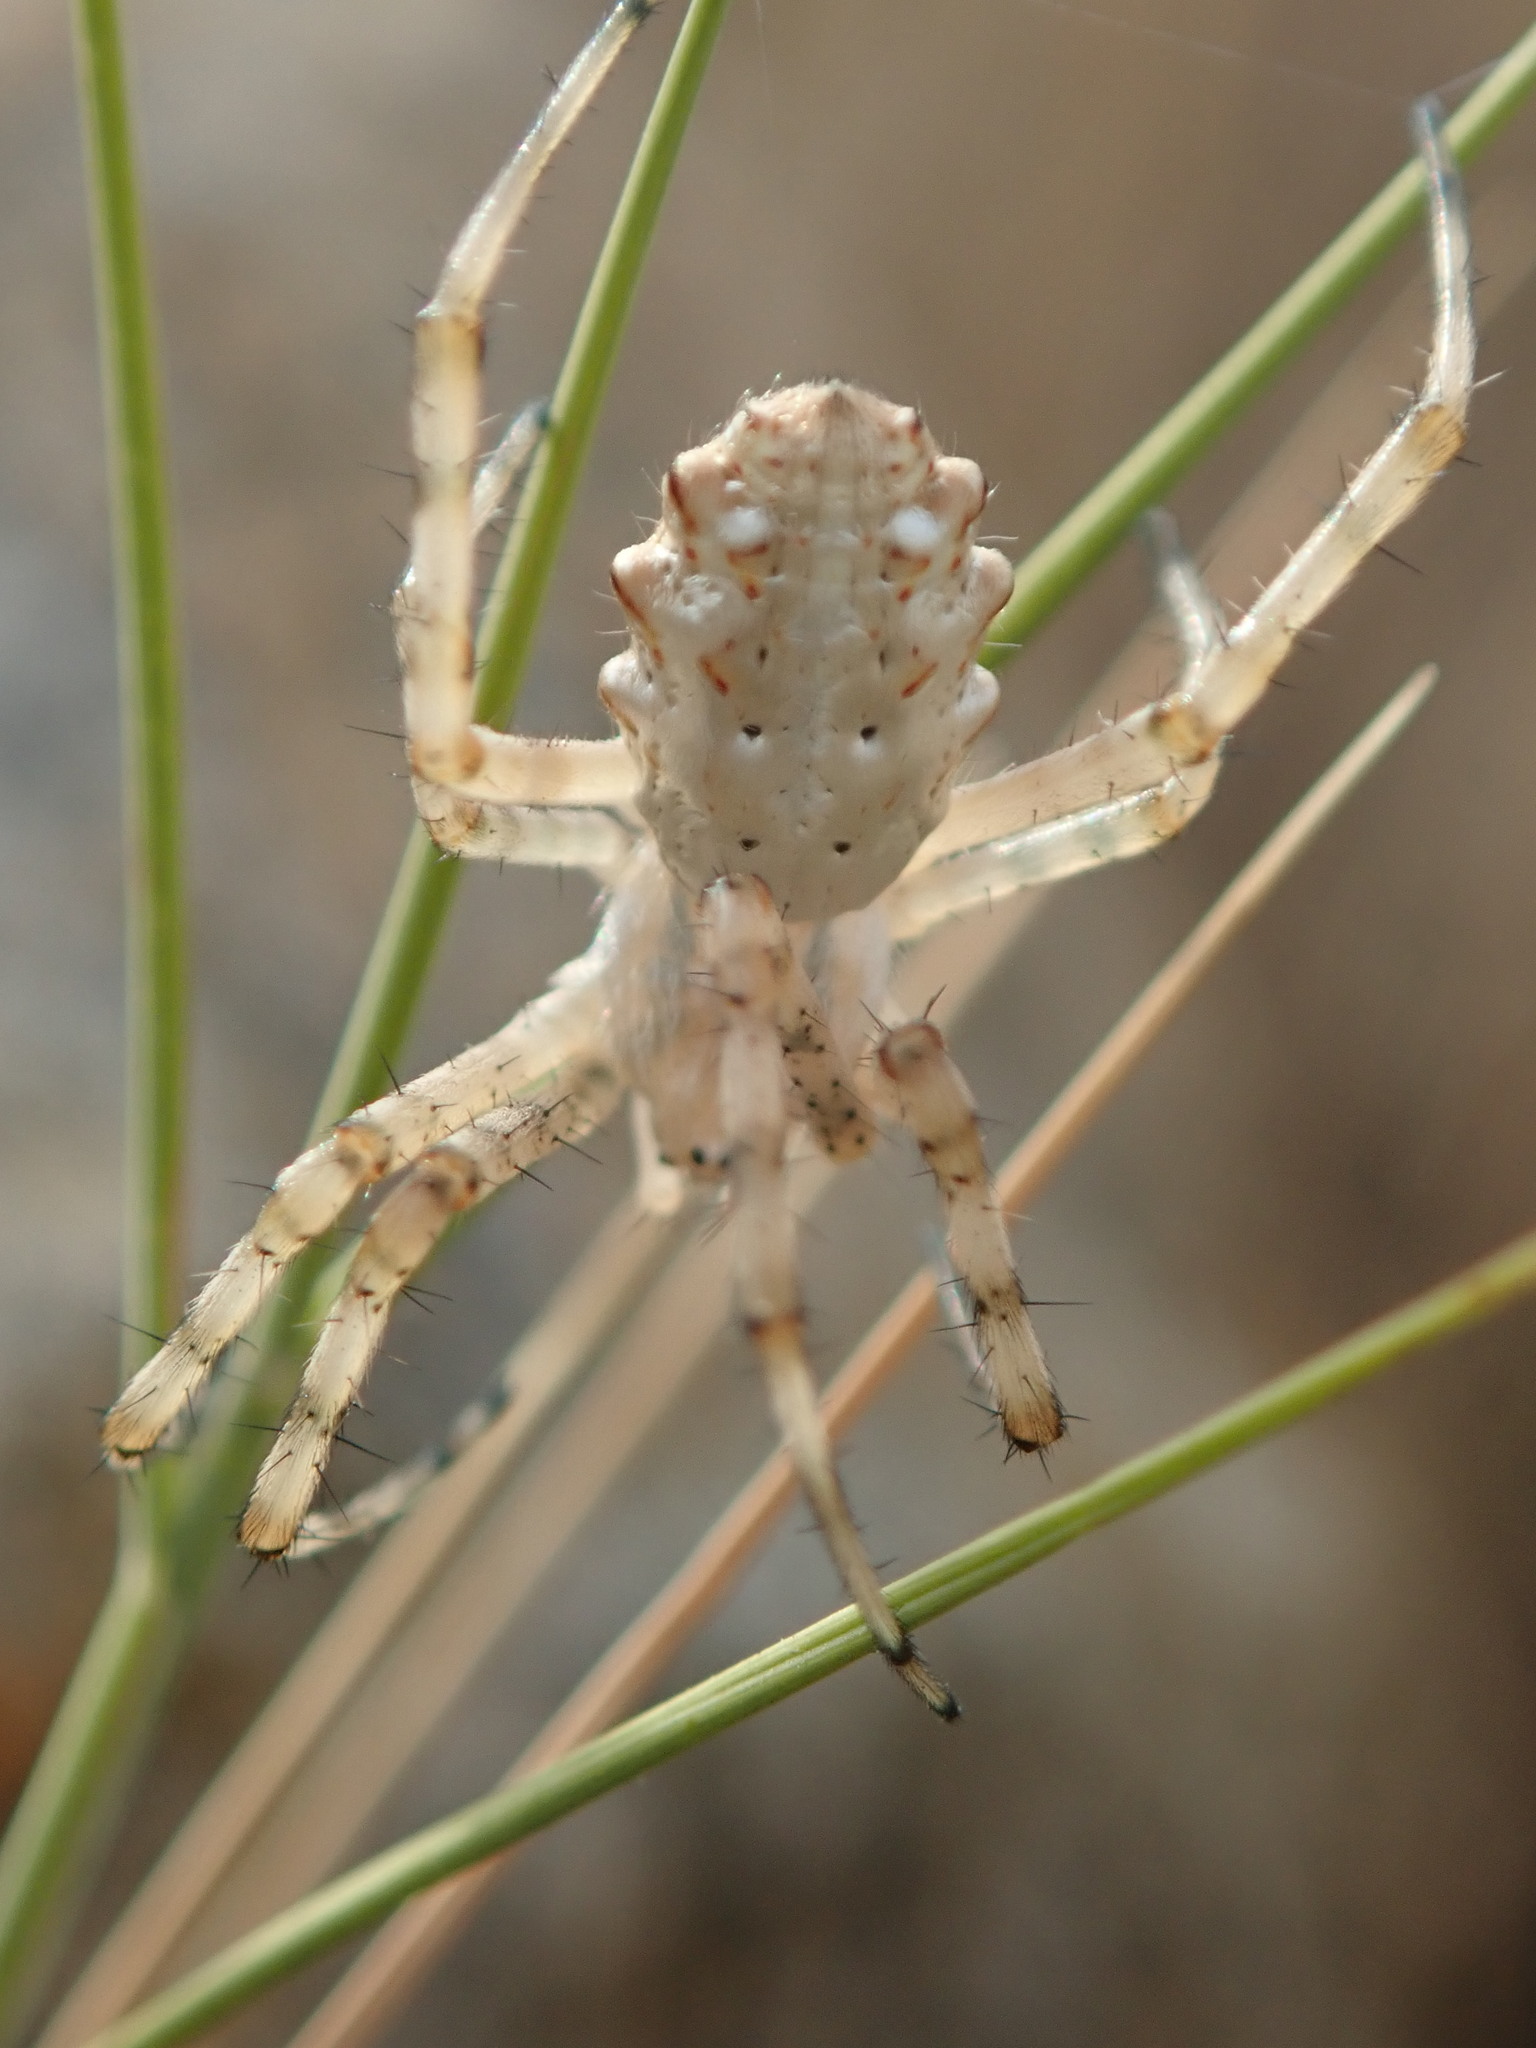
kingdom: Animalia
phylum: Arthropoda
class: Arachnida
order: Araneae
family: Araneidae
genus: Argiope
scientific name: Argiope lobata
